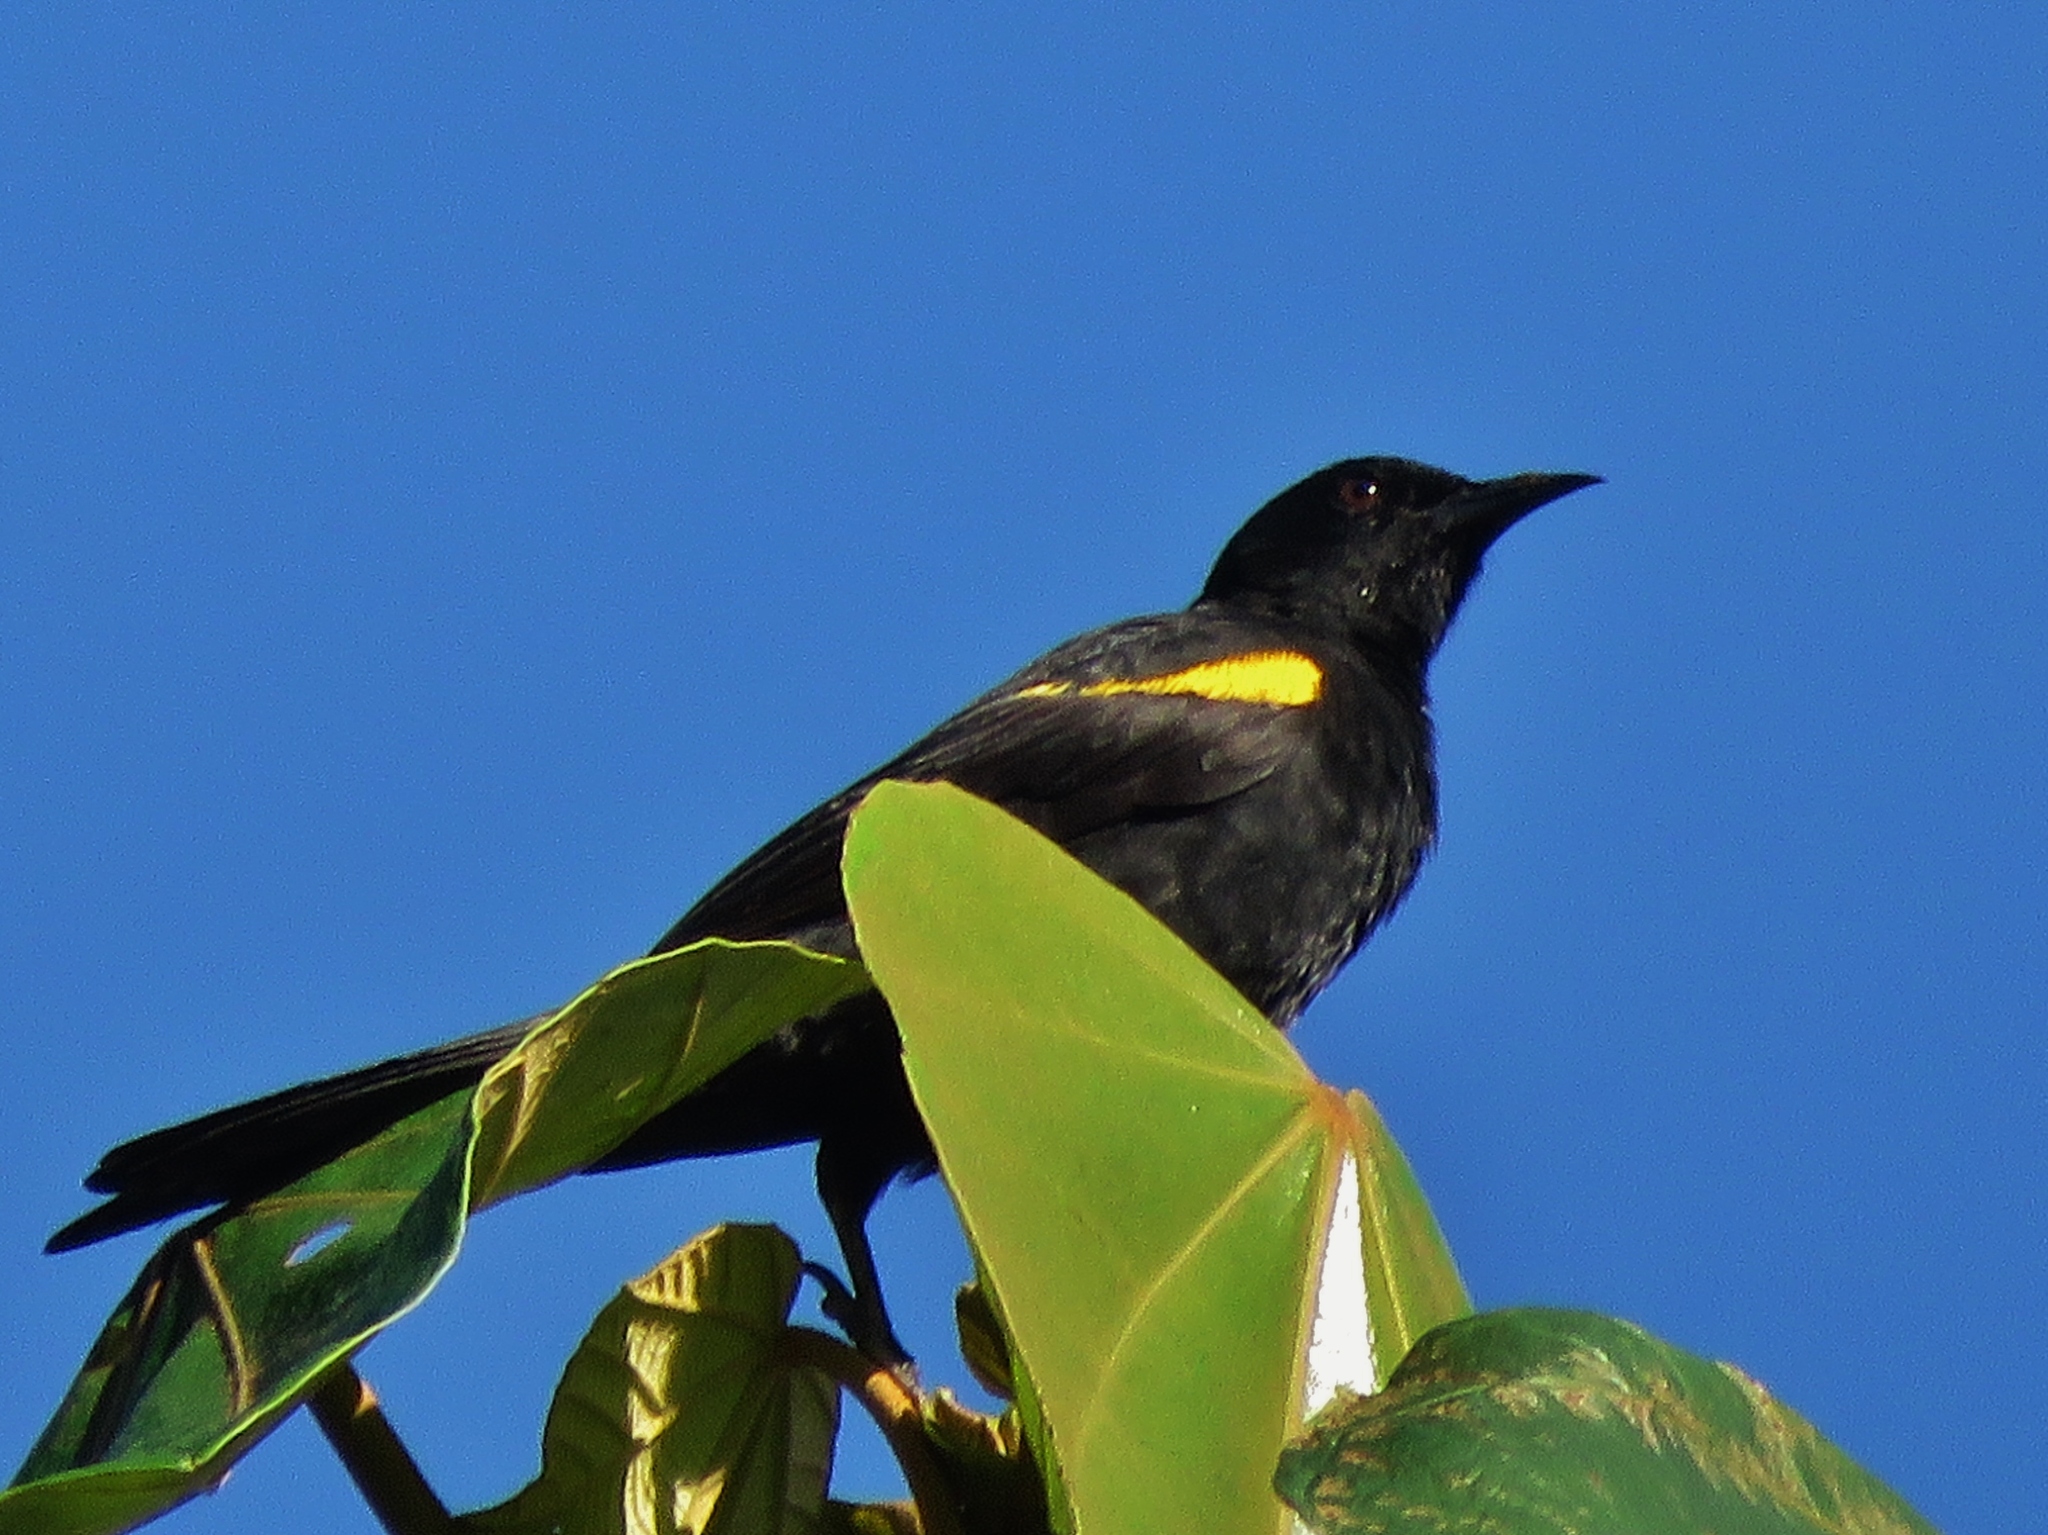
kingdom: Animalia
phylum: Chordata
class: Aves
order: Passeriformes
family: Icteridae
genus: Icterus
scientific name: Icterus cayanensis
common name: Epaulet oriole
